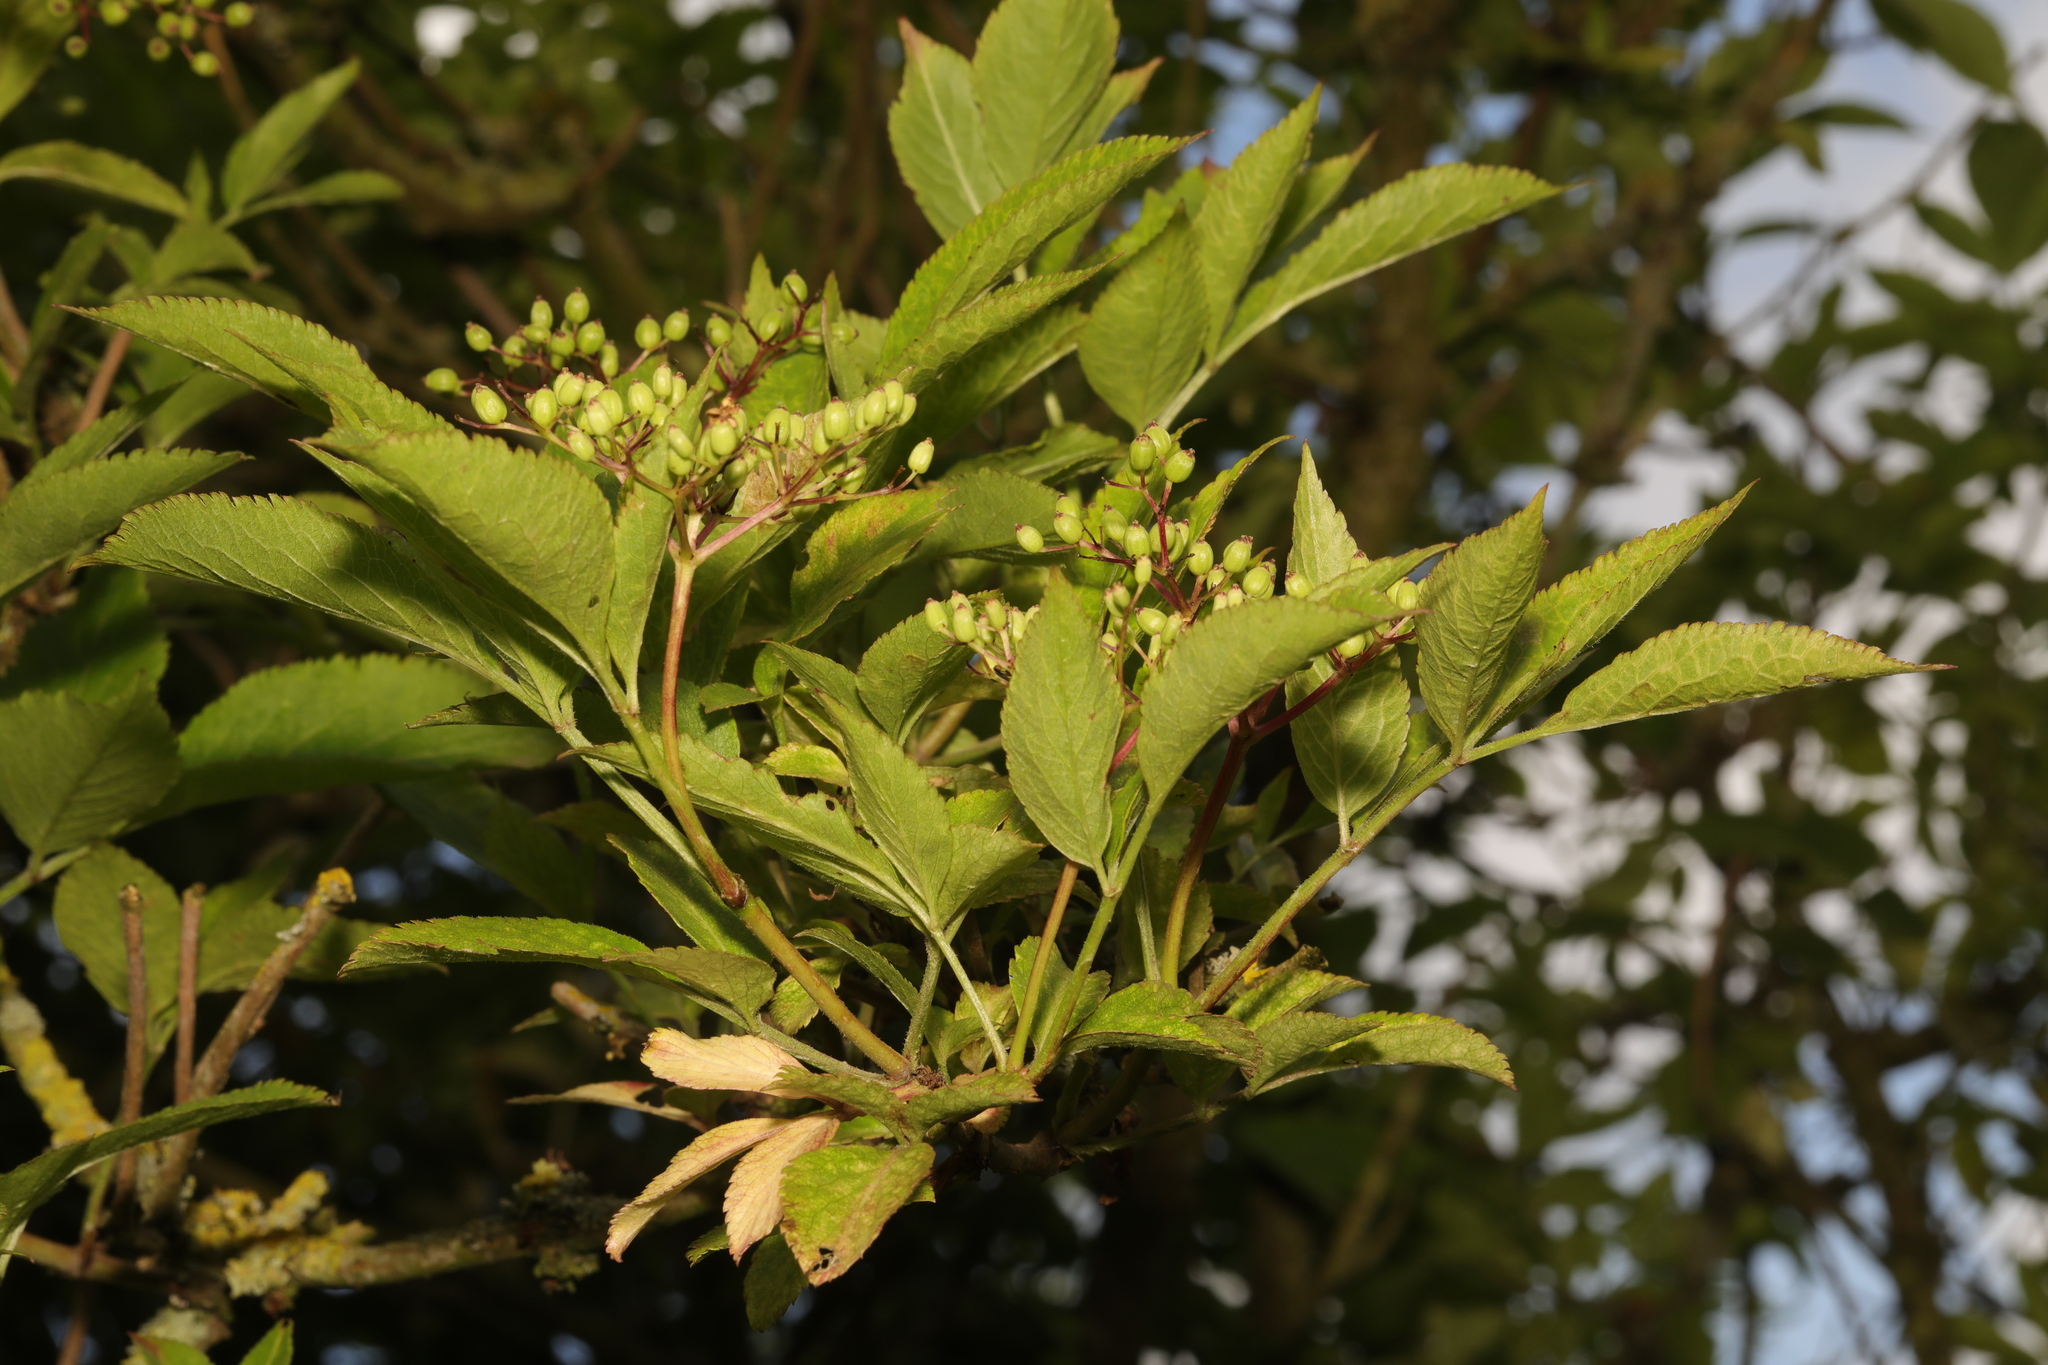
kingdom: Plantae
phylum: Tracheophyta
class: Magnoliopsida
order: Dipsacales
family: Viburnaceae
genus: Sambucus
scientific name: Sambucus nigra
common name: Elder
